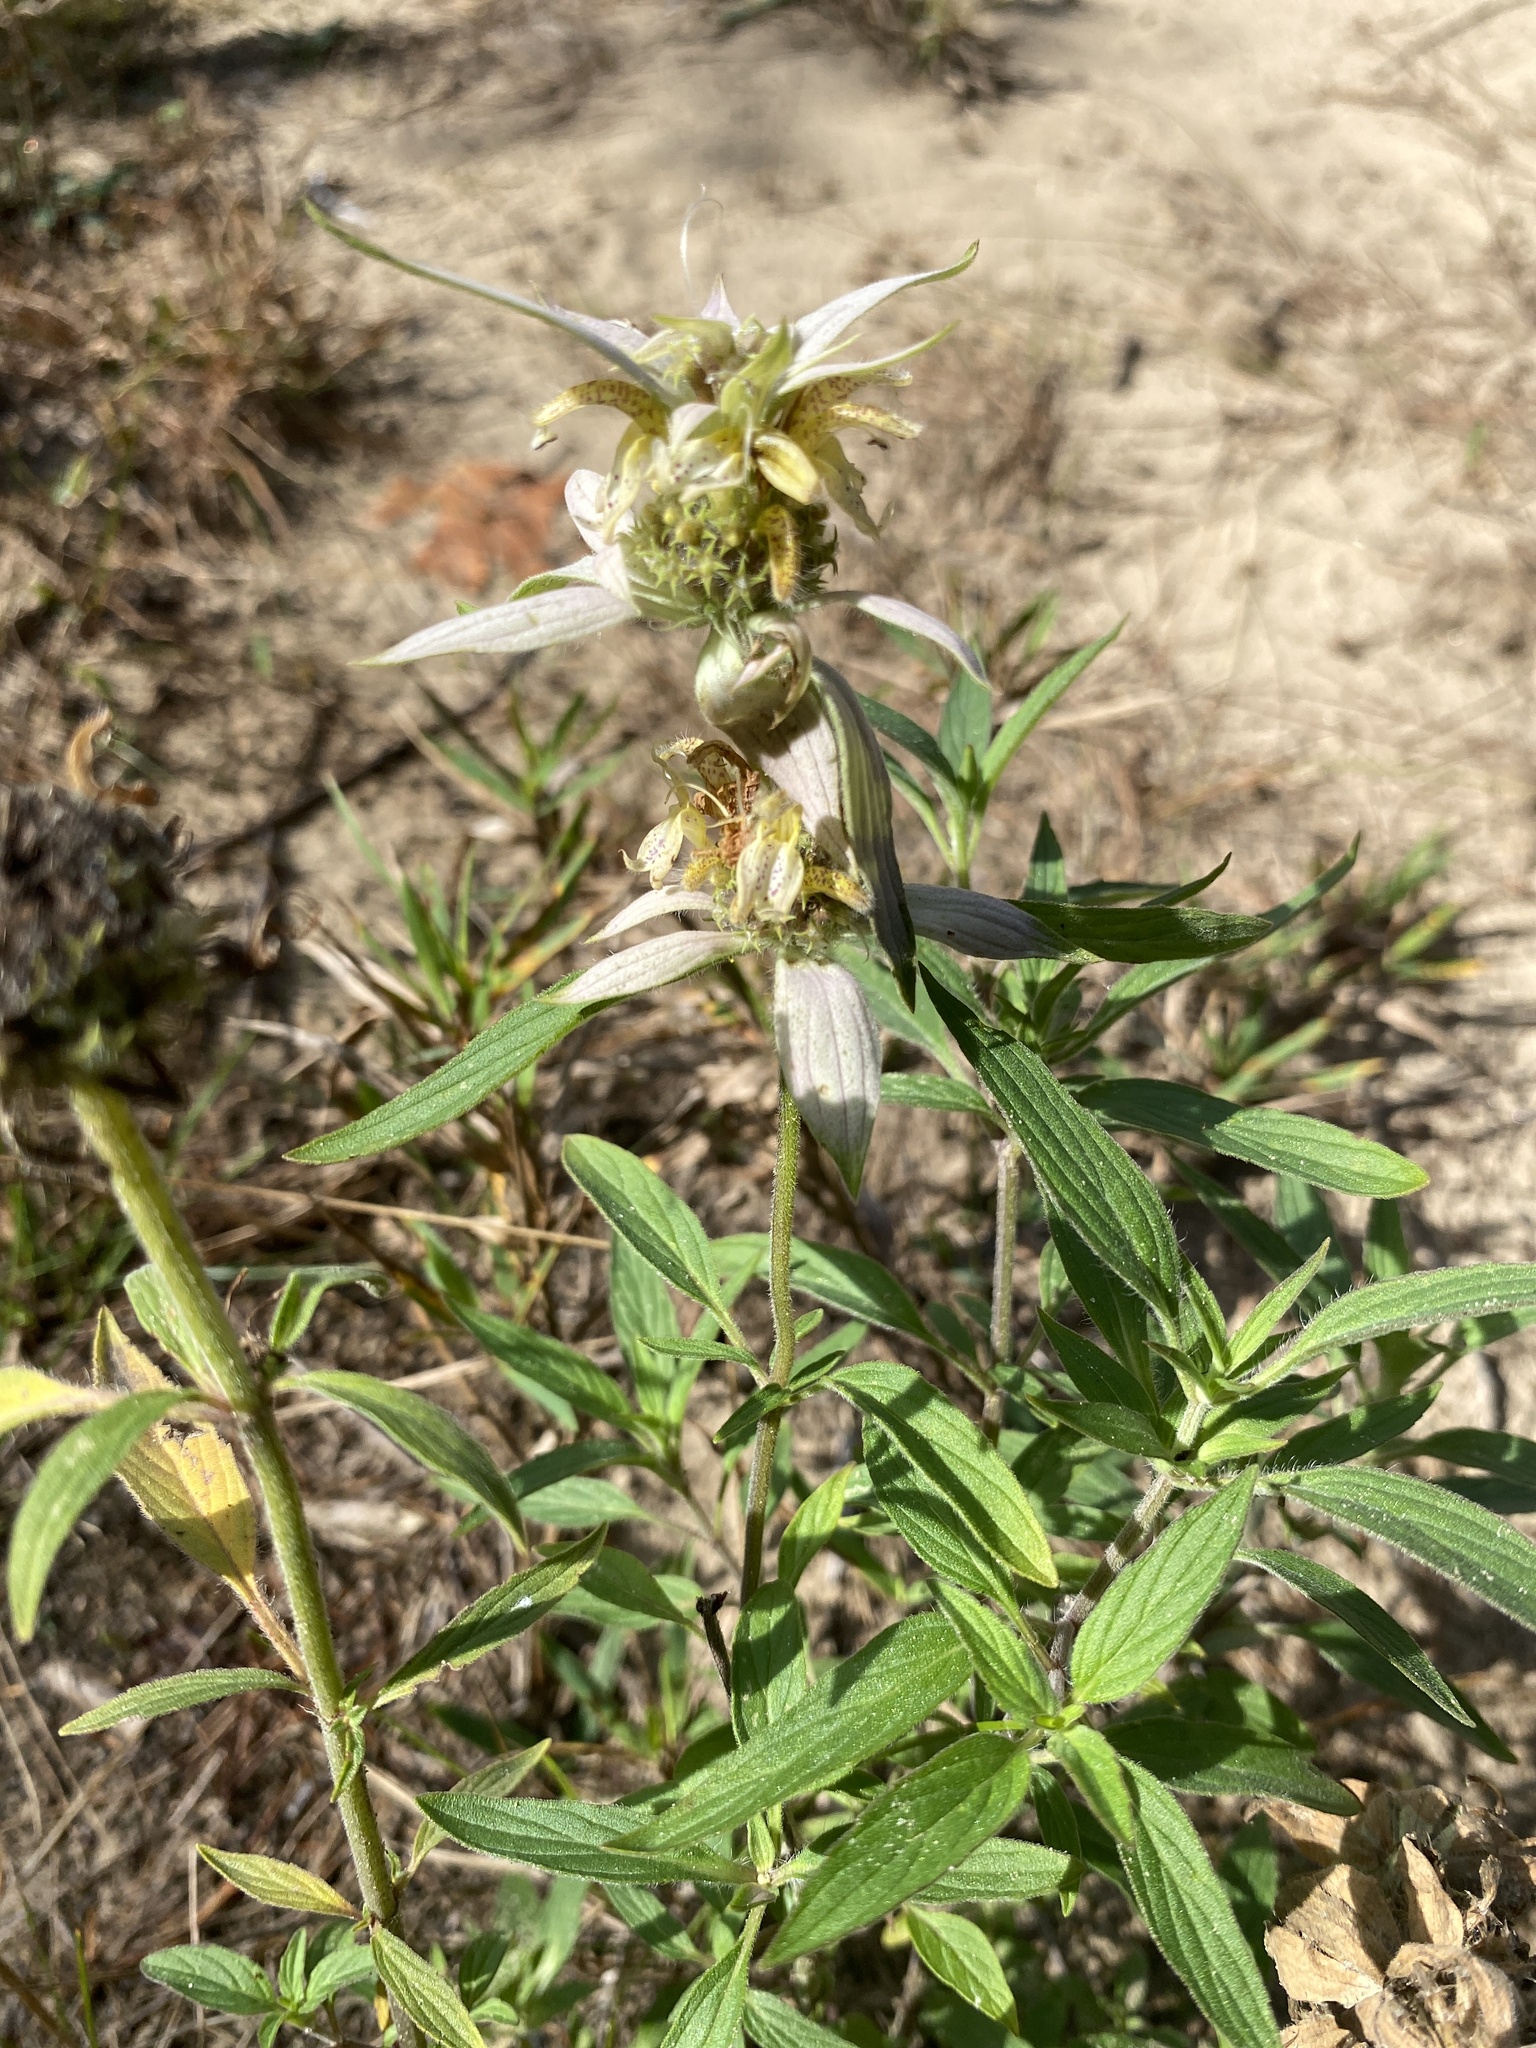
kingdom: Plantae
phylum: Tracheophyta
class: Magnoliopsida
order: Lamiales
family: Lamiaceae
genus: Monarda
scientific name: Monarda punctata
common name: Dotted monarda
